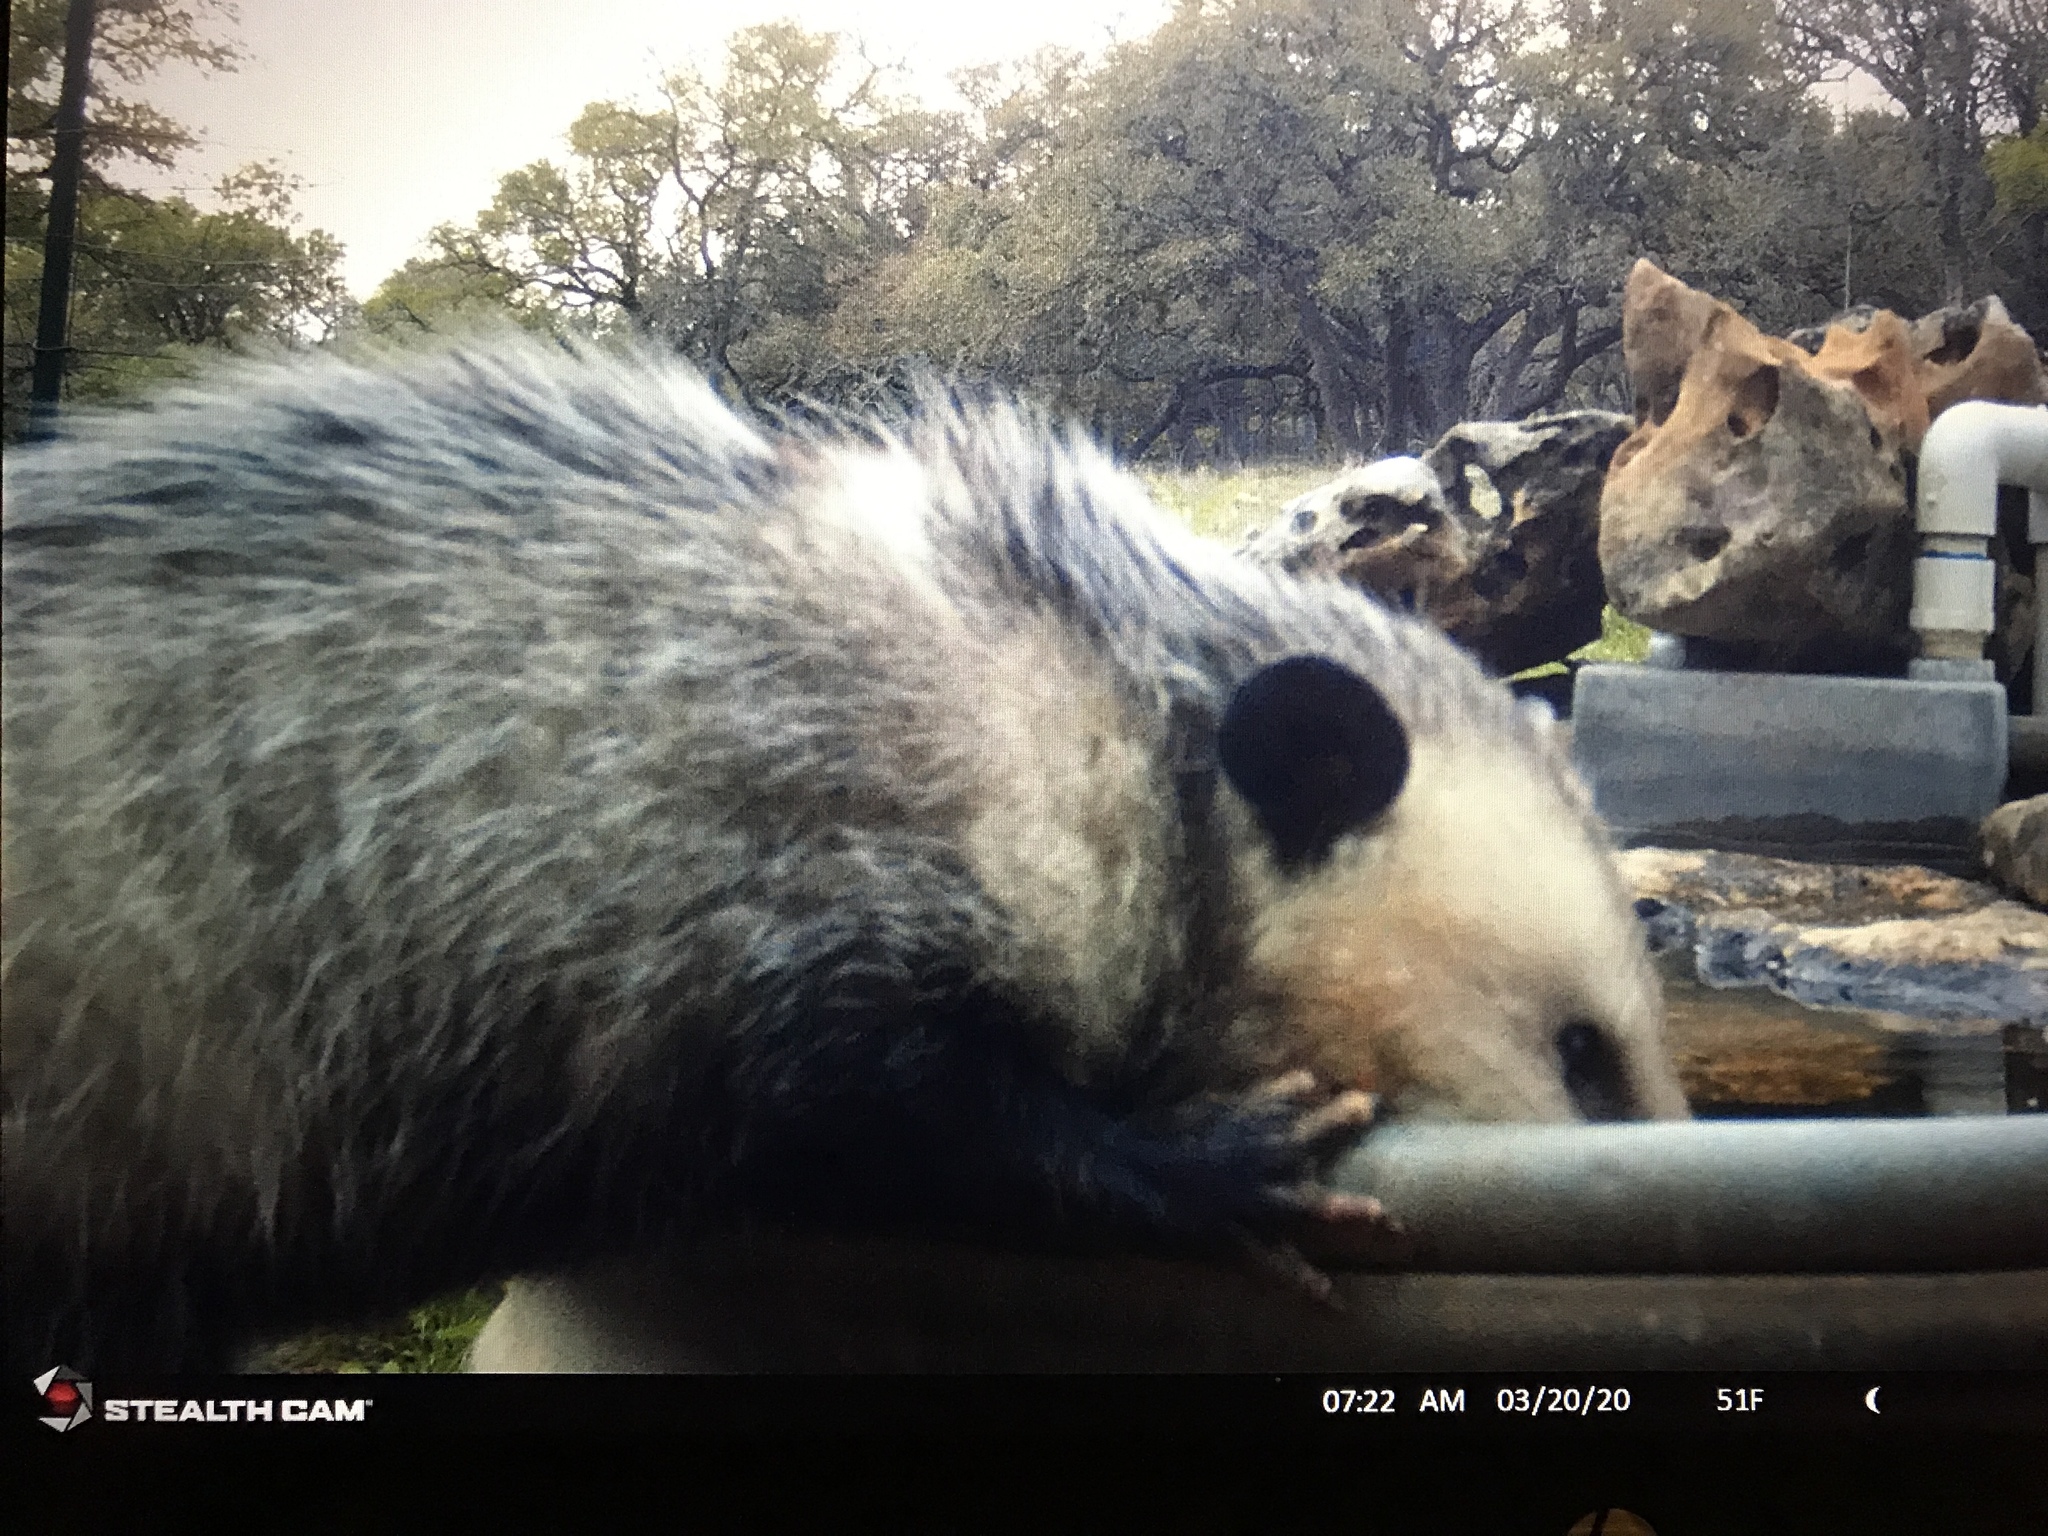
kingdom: Animalia
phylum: Chordata
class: Mammalia
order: Didelphimorphia
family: Didelphidae
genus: Didelphis
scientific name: Didelphis virginiana
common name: Virginia opossum
